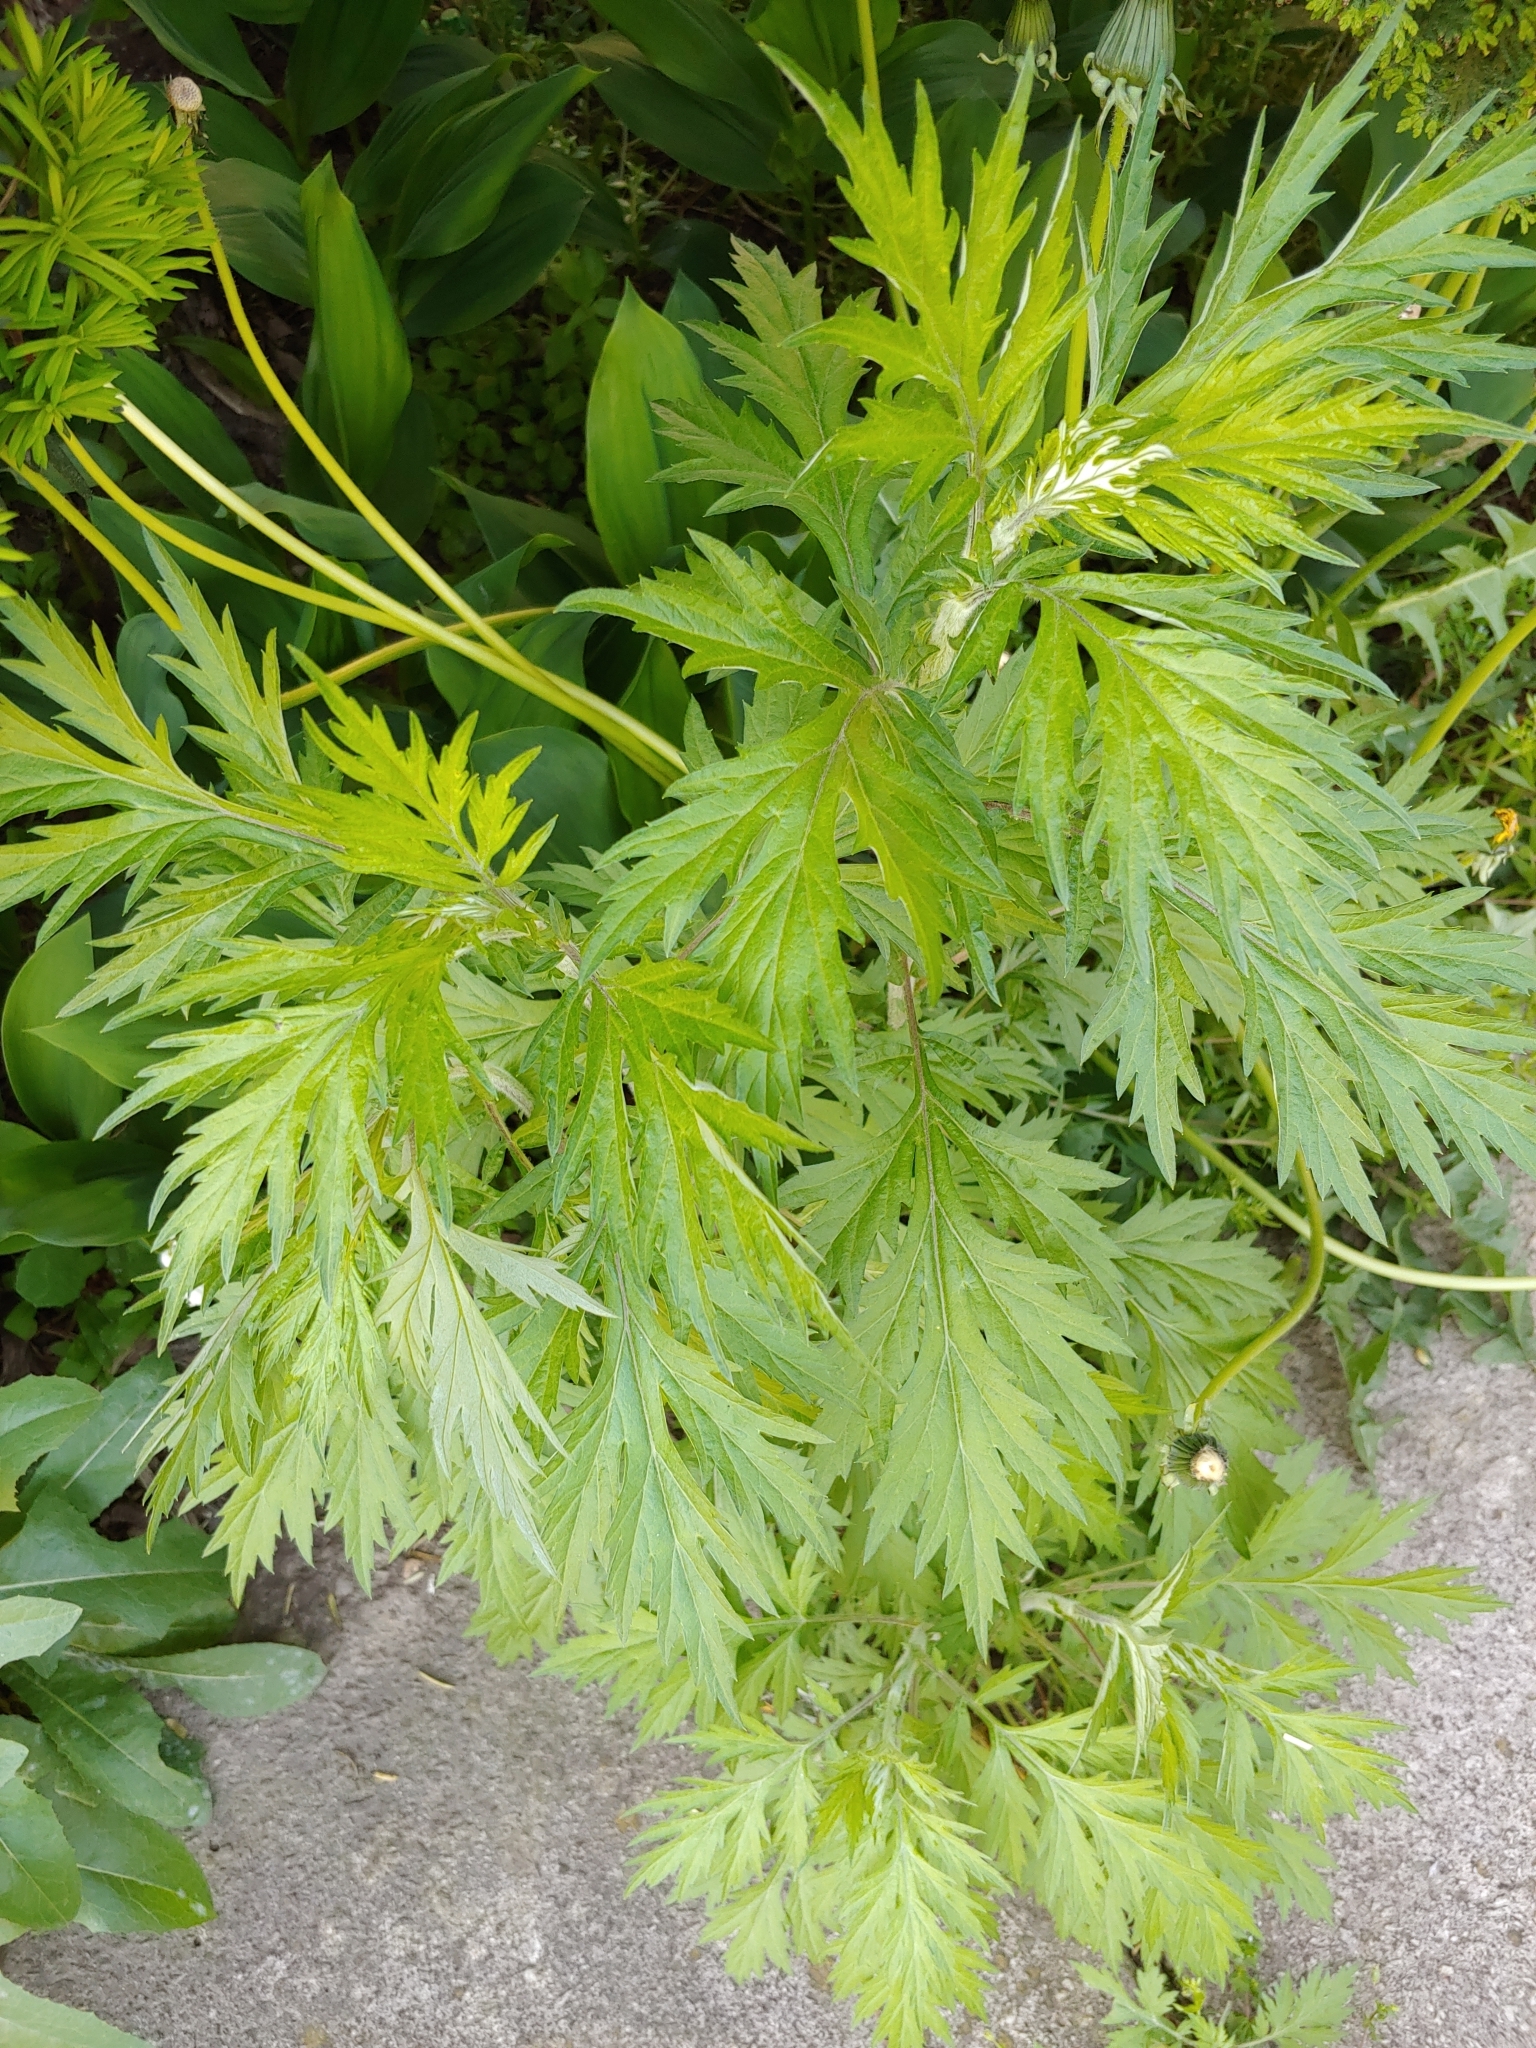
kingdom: Plantae
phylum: Tracheophyta
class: Magnoliopsida
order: Asterales
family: Asteraceae
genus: Artemisia
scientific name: Artemisia vulgaris
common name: Mugwort
